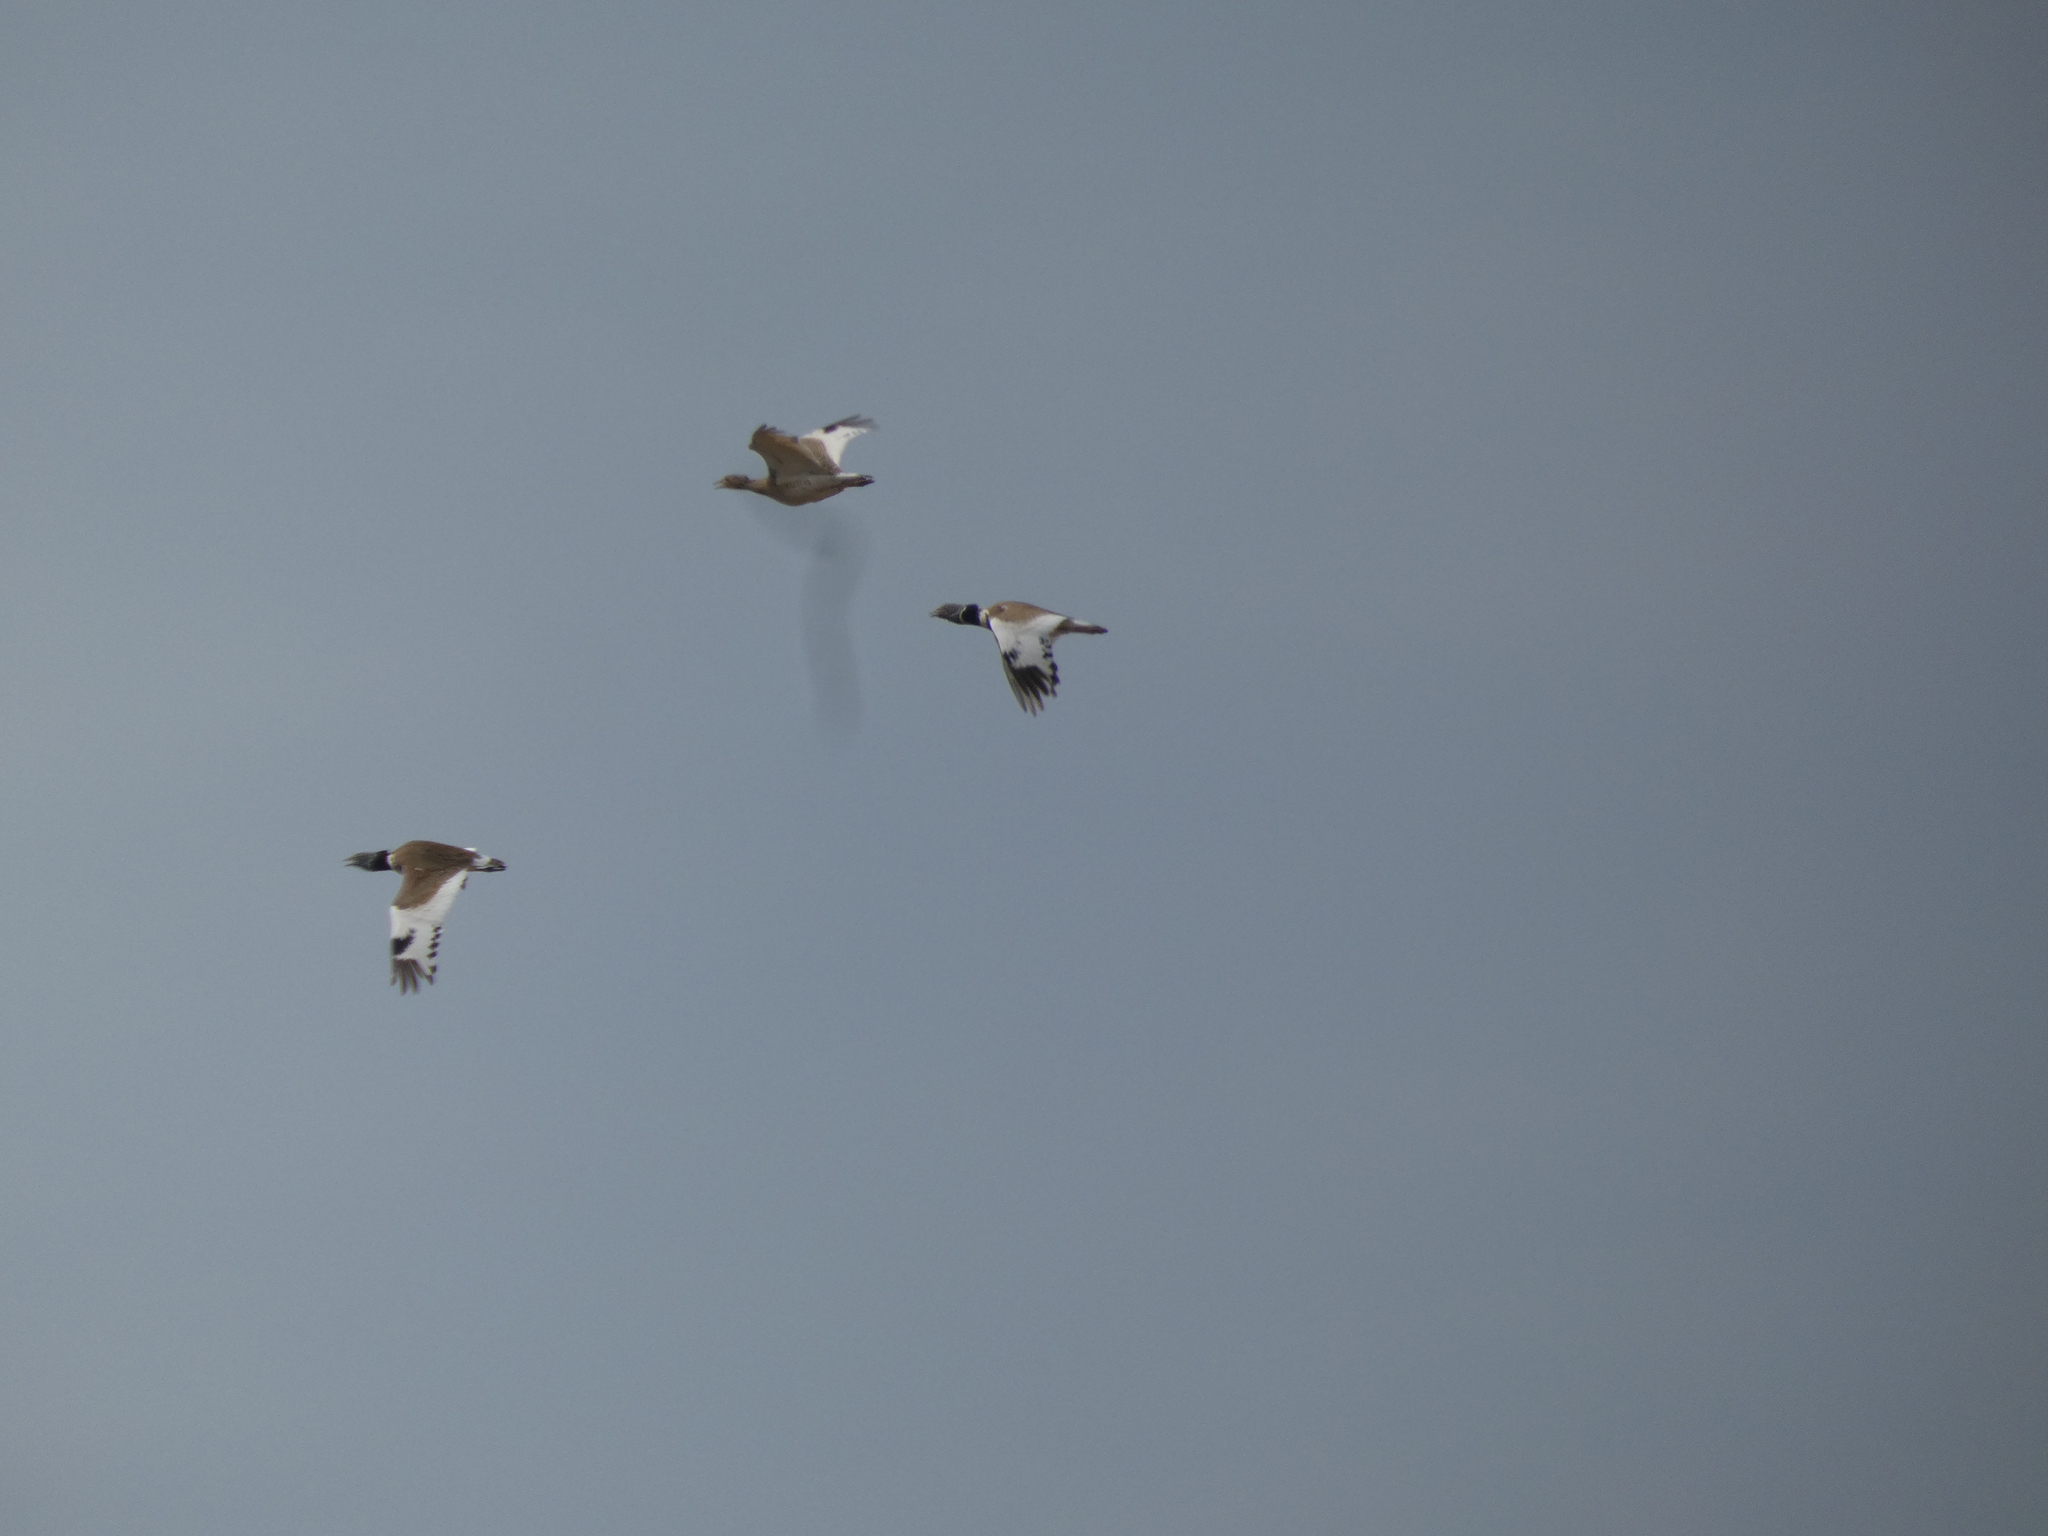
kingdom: Animalia
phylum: Chordata
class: Aves
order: Otidiformes
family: Otididae
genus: Tetrax
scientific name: Tetrax tetrax
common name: Little bustard
